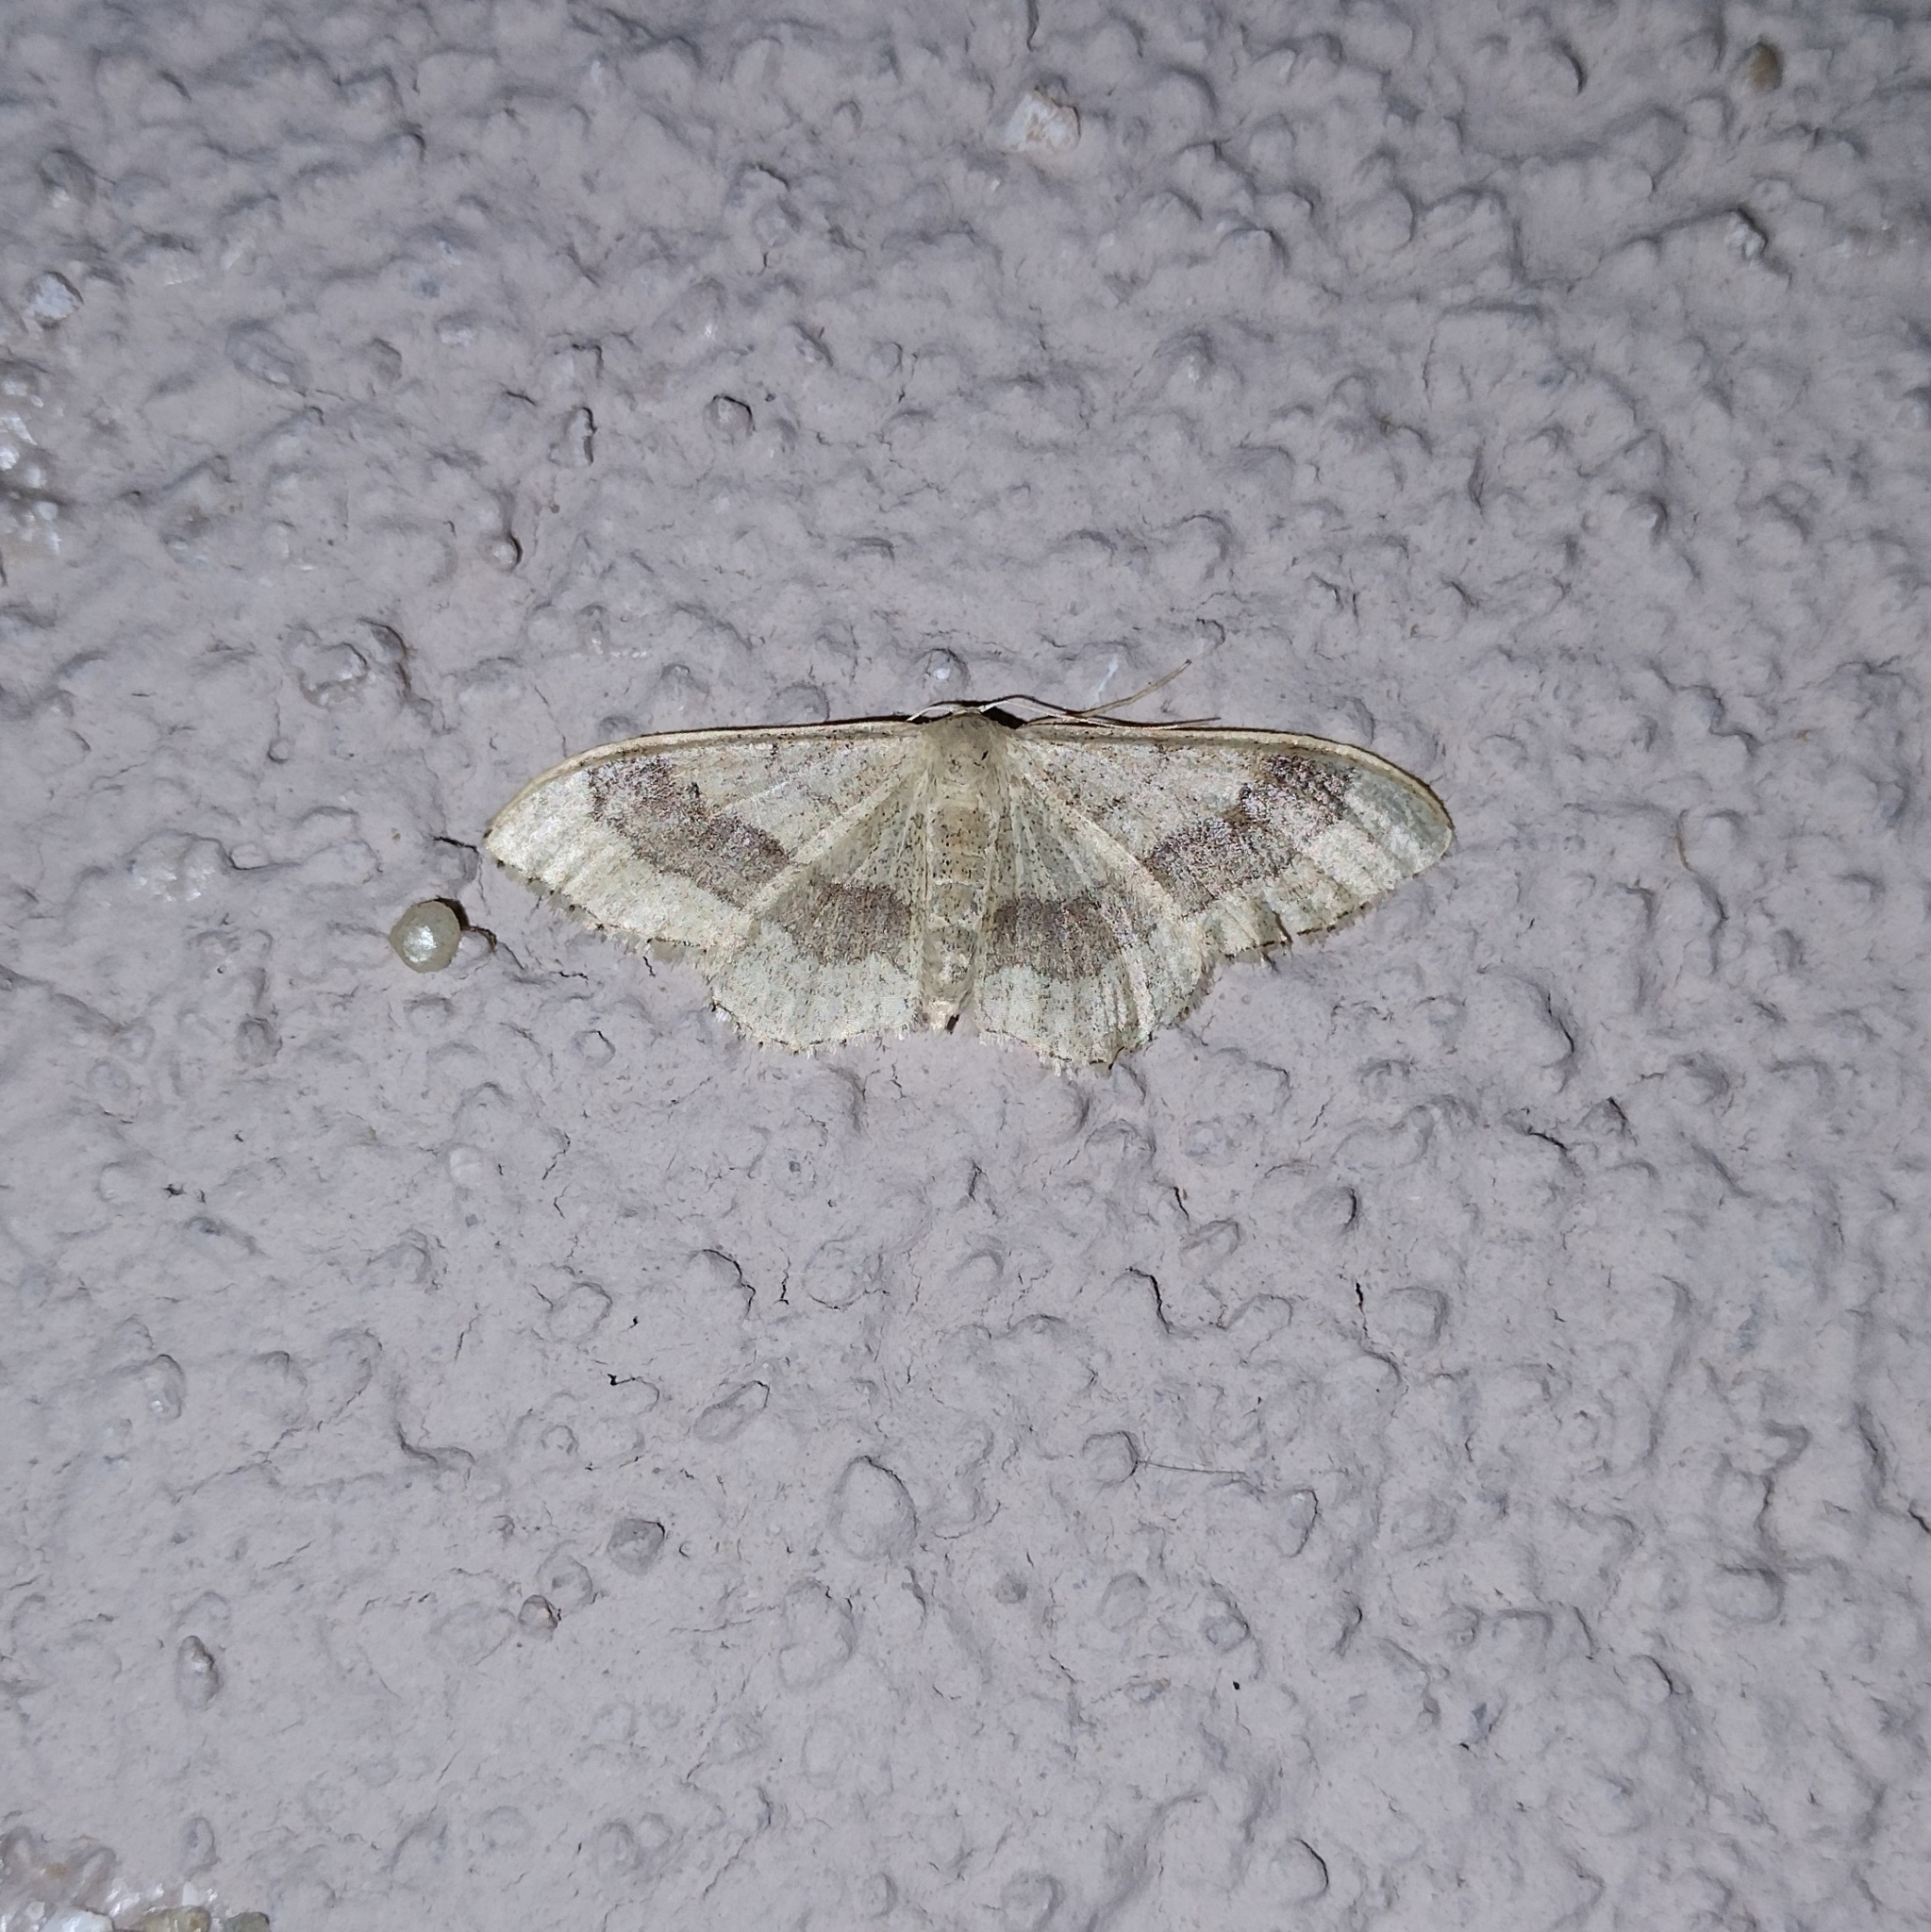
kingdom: Animalia
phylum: Arthropoda
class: Insecta
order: Lepidoptera
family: Geometridae
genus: Idaea
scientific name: Idaea aversata
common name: Riband wave
